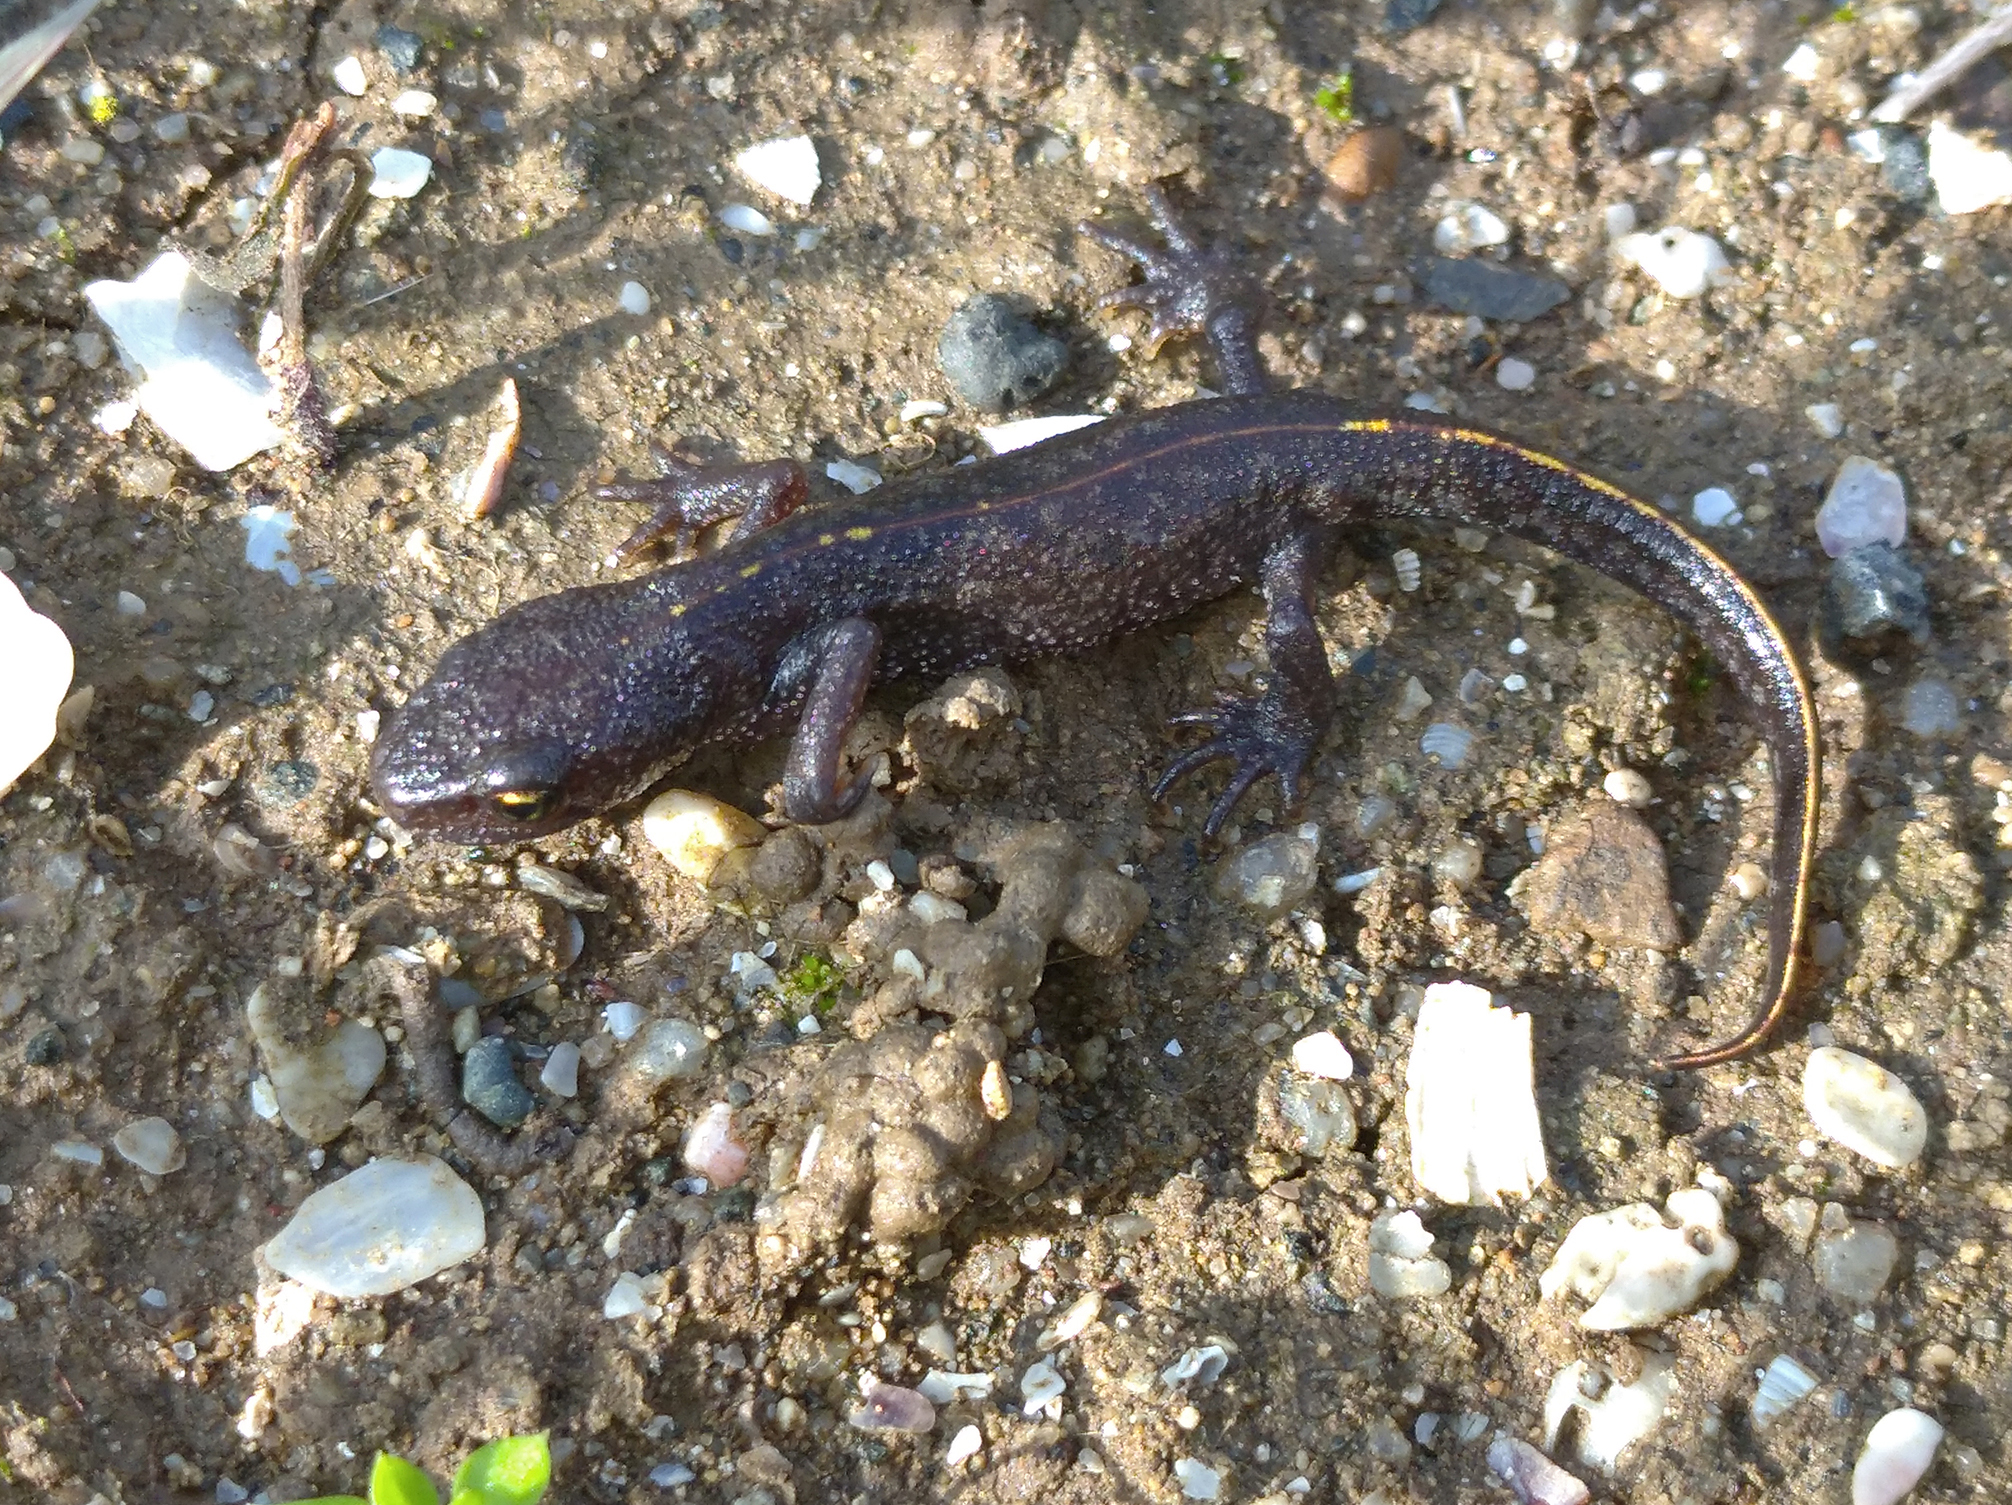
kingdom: Animalia
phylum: Chordata
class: Amphibia
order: Caudata
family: Salamandridae
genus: Triturus
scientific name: Triturus ivanbureschi
